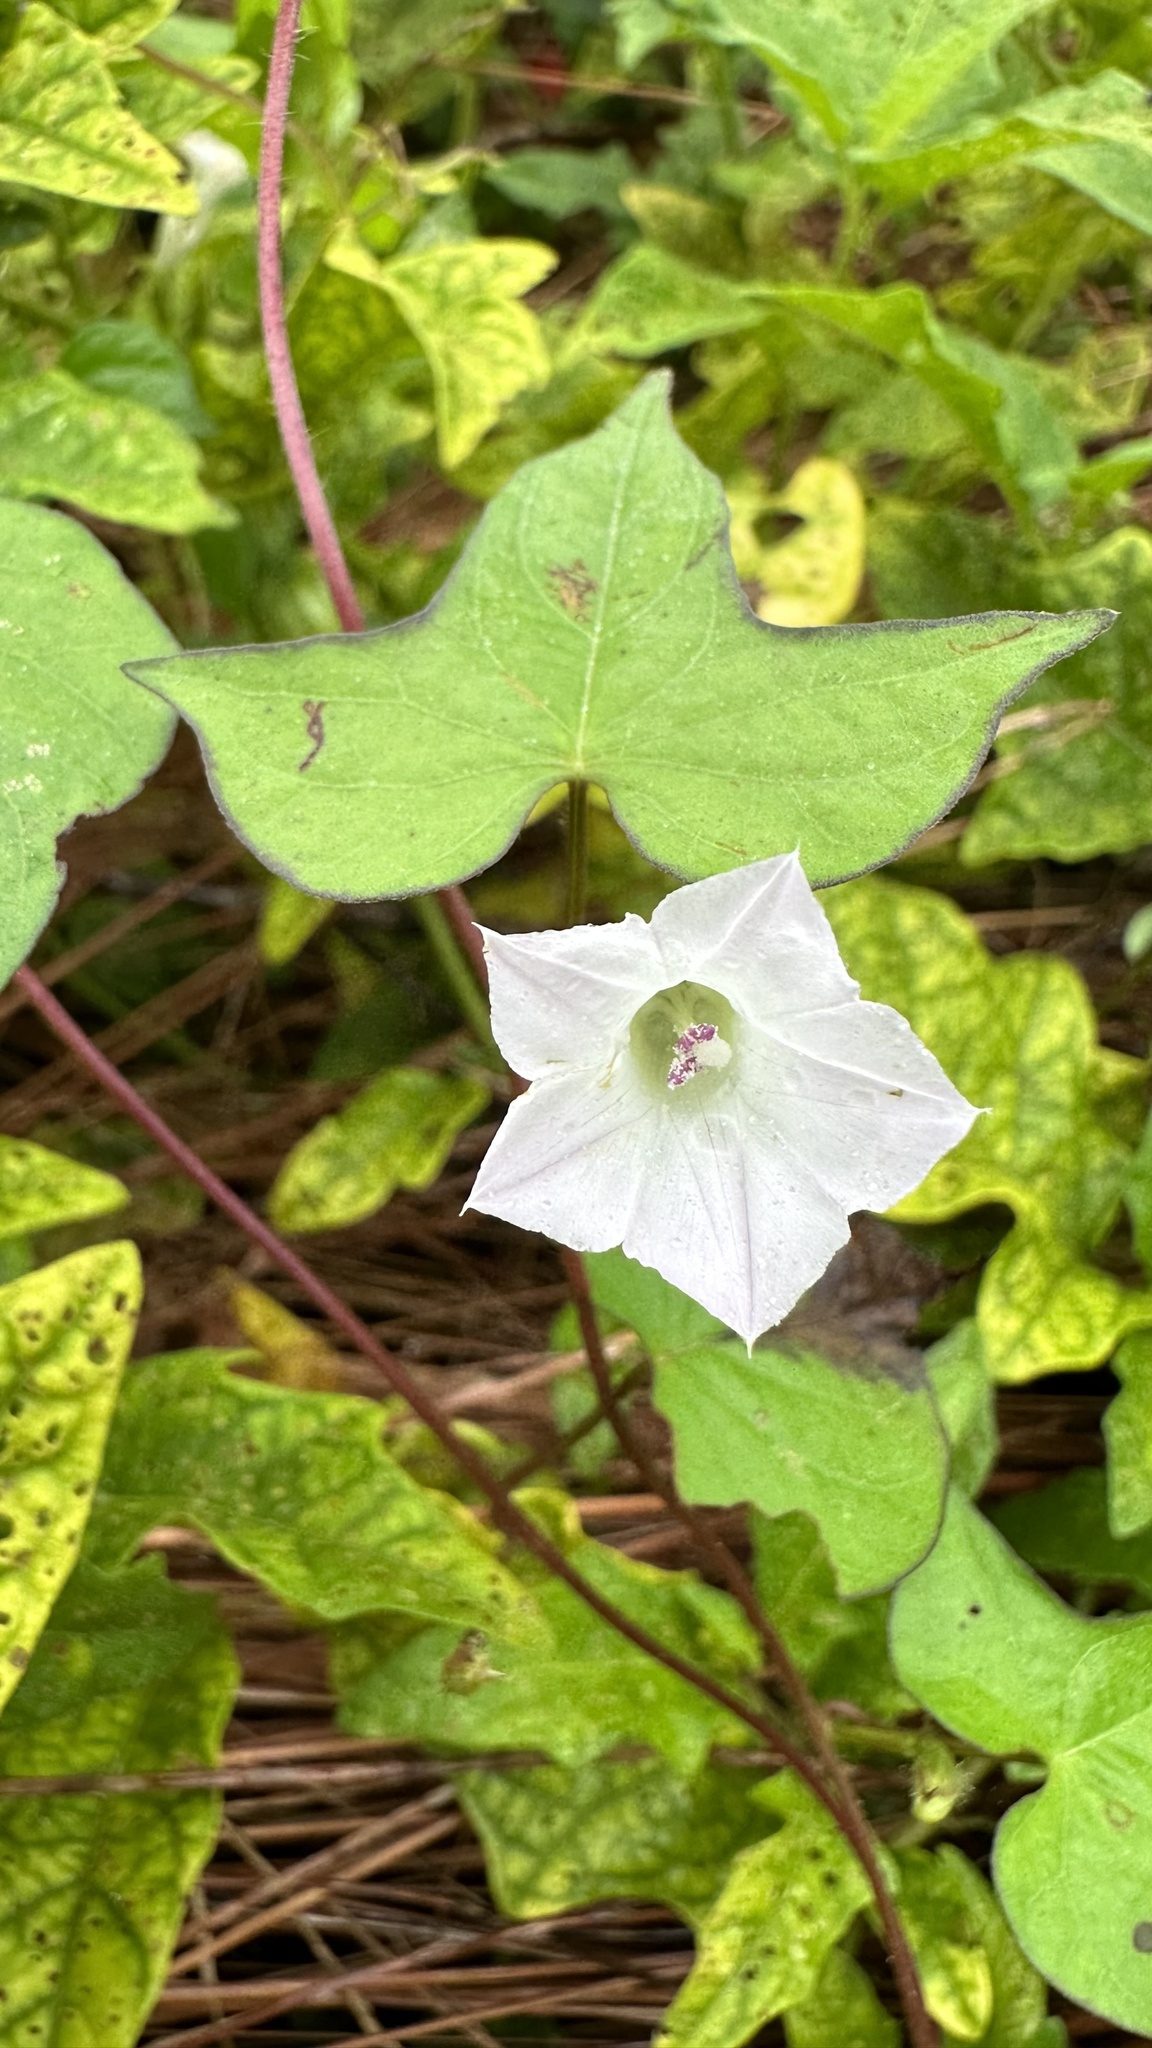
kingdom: Plantae
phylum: Tracheophyta
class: Magnoliopsida
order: Solanales
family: Convolvulaceae
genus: Ipomoea
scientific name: Ipomoea lacunosa
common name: White morning-glory
